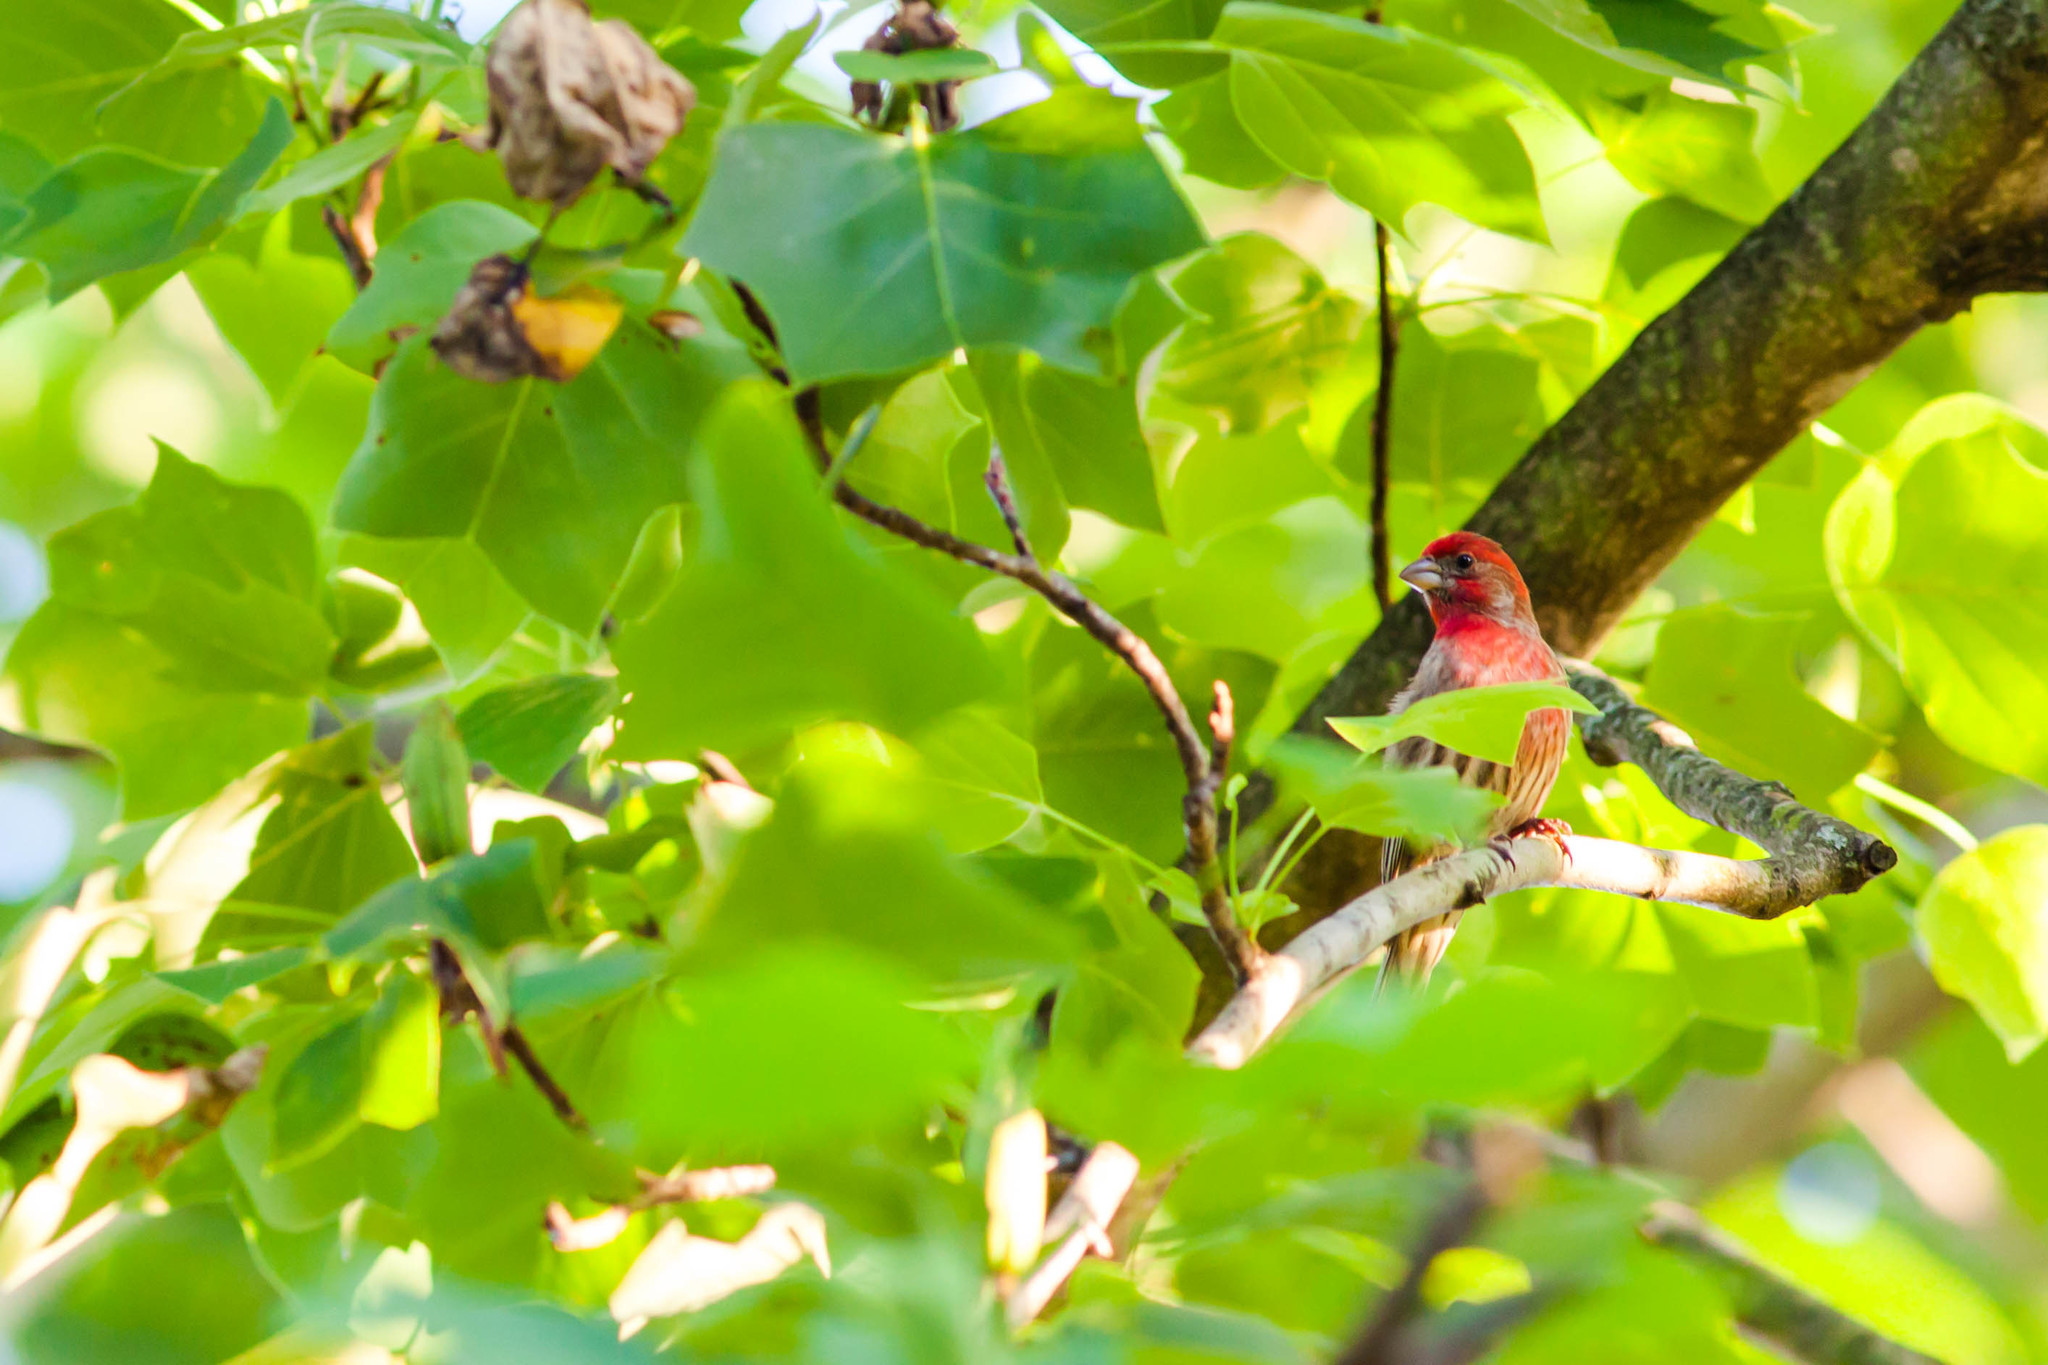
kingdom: Animalia
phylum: Chordata
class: Aves
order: Passeriformes
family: Fringillidae
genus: Haemorhous
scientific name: Haemorhous mexicanus
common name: House finch
